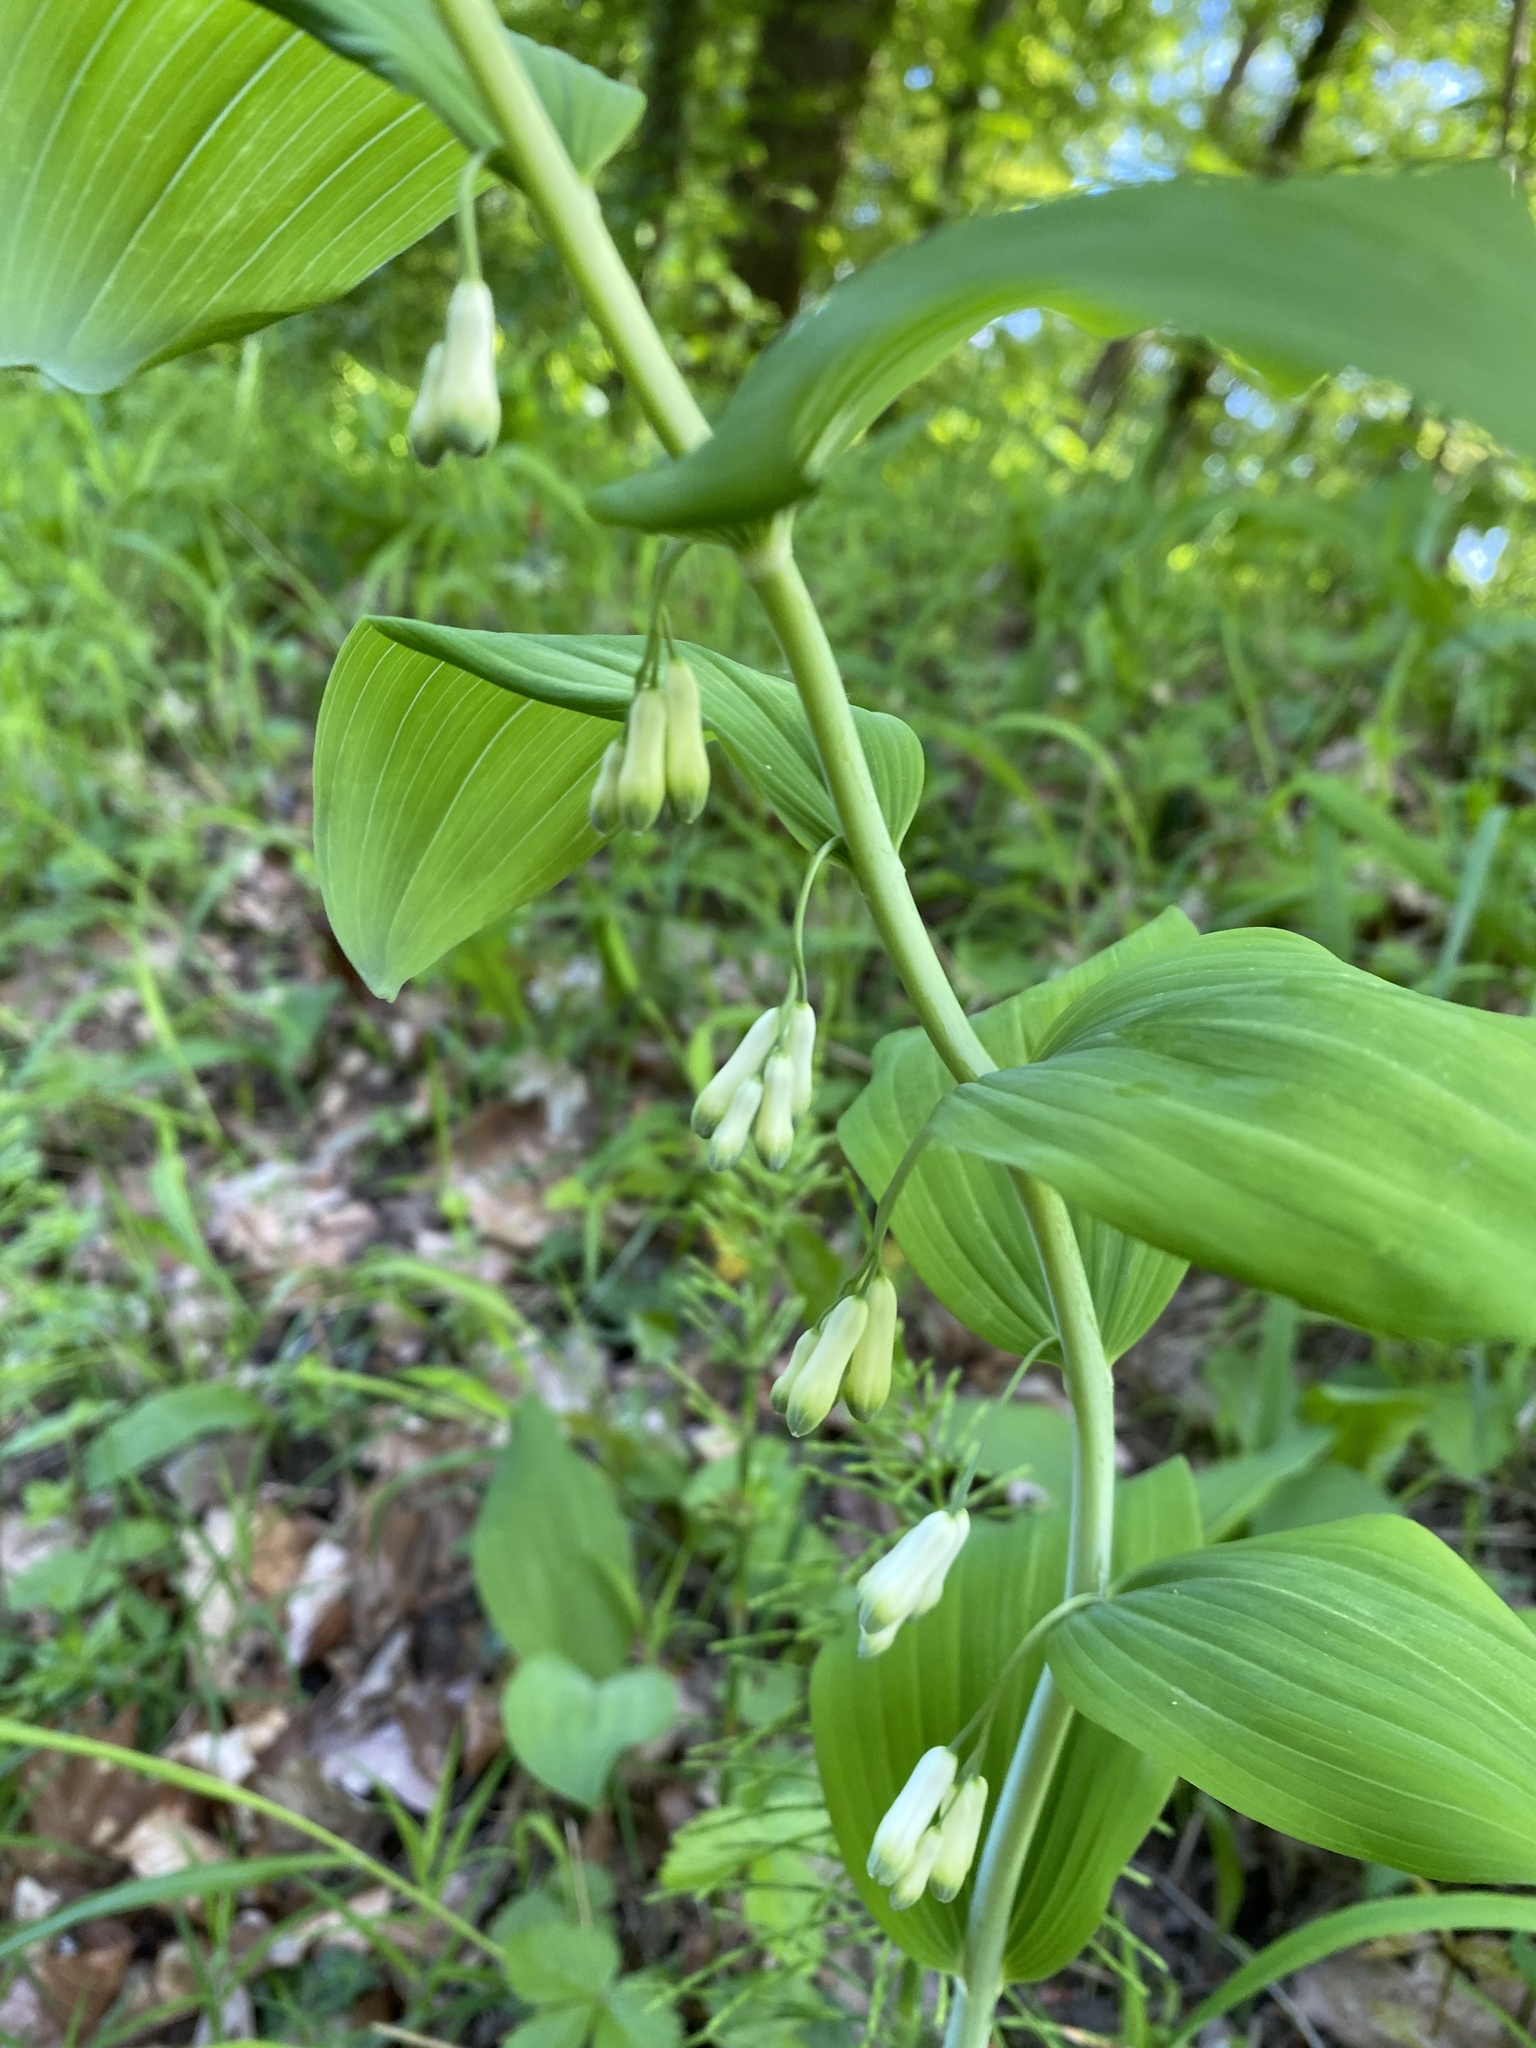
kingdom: Plantae
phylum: Tracheophyta
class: Liliopsida
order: Asparagales
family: Asparagaceae
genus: Polygonatum
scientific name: Polygonatum multiflorum
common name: Solomon's-seal
